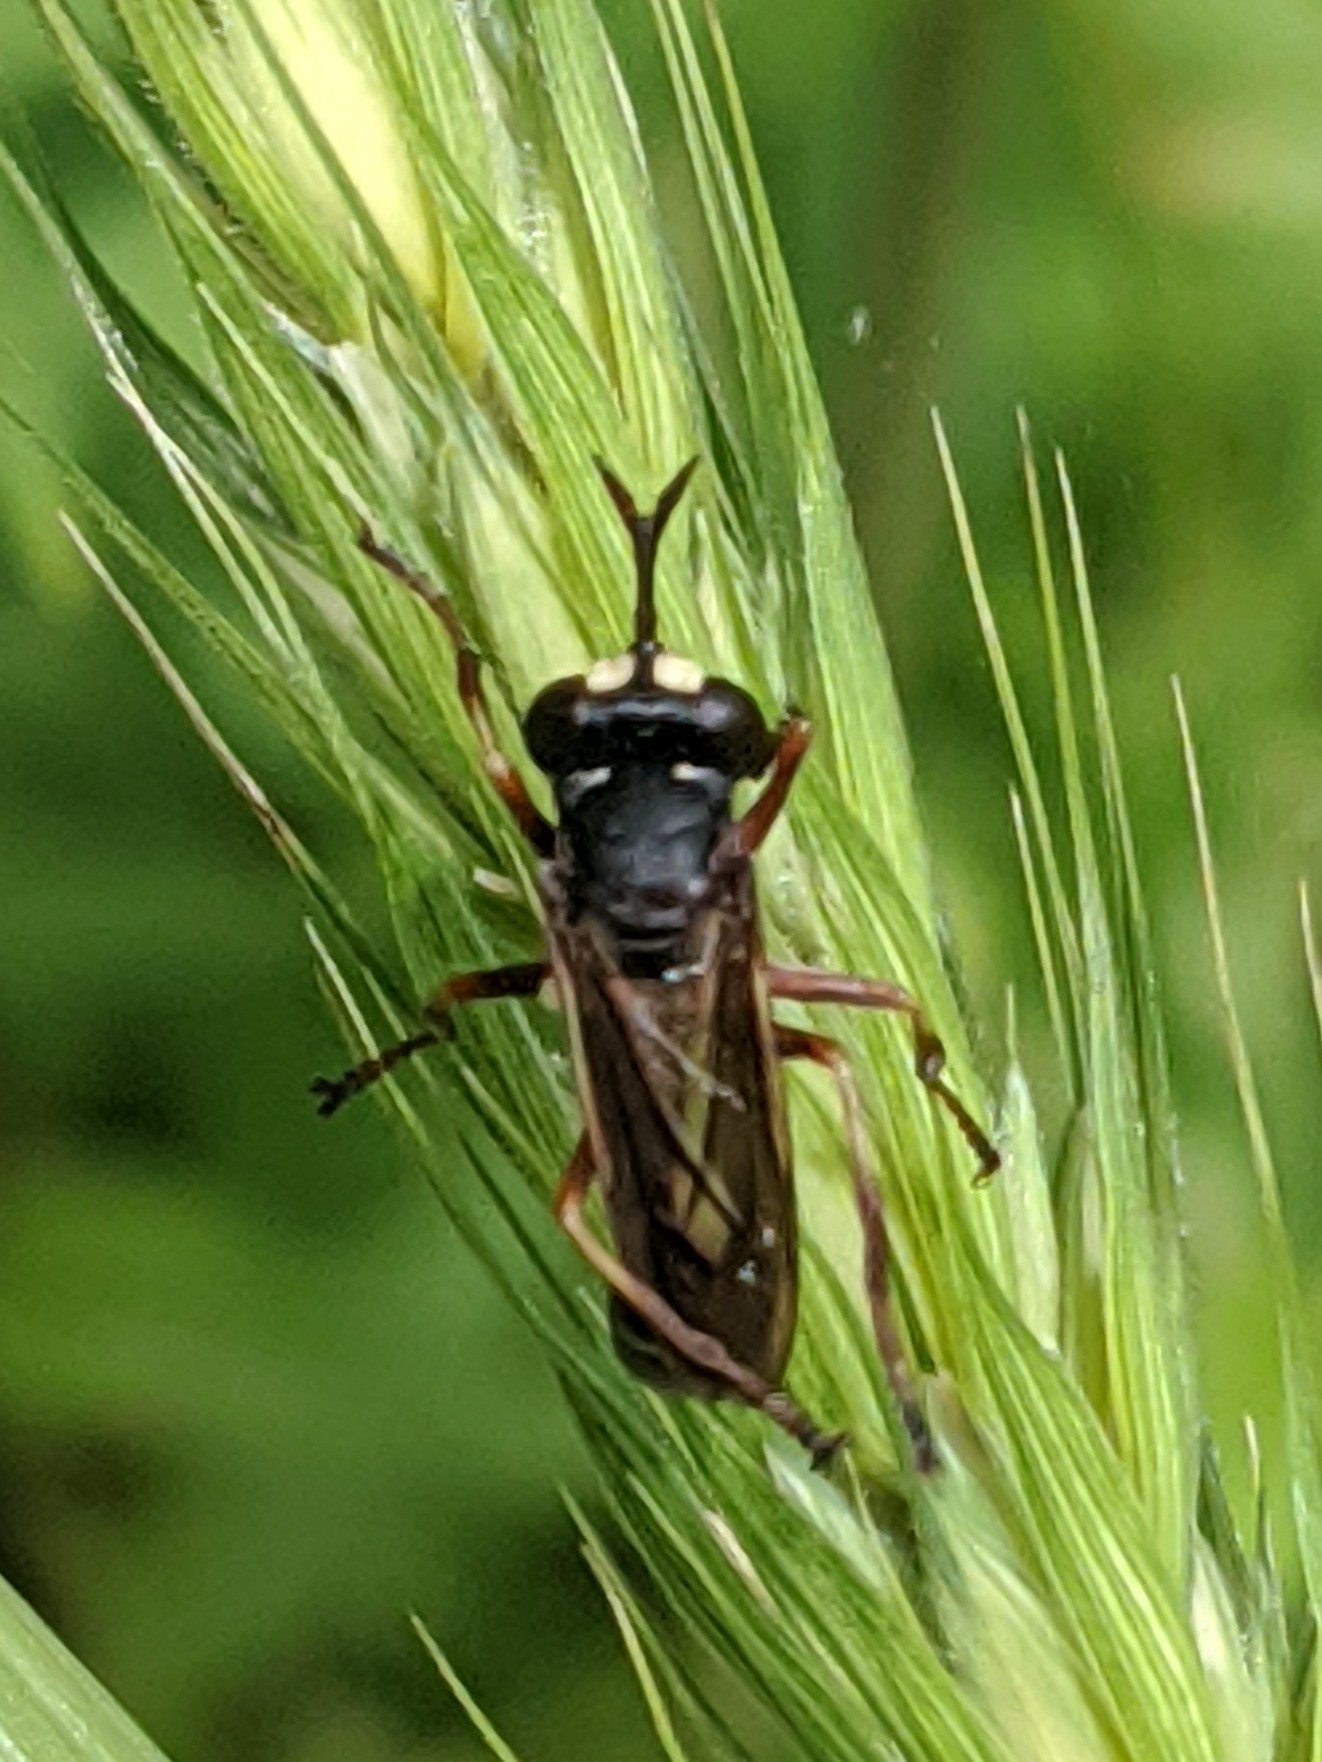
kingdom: Animalia
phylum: Arthropoda
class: Insecta
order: Diptera
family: Conopidae
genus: Physocephala
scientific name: Physocephala furcillata
